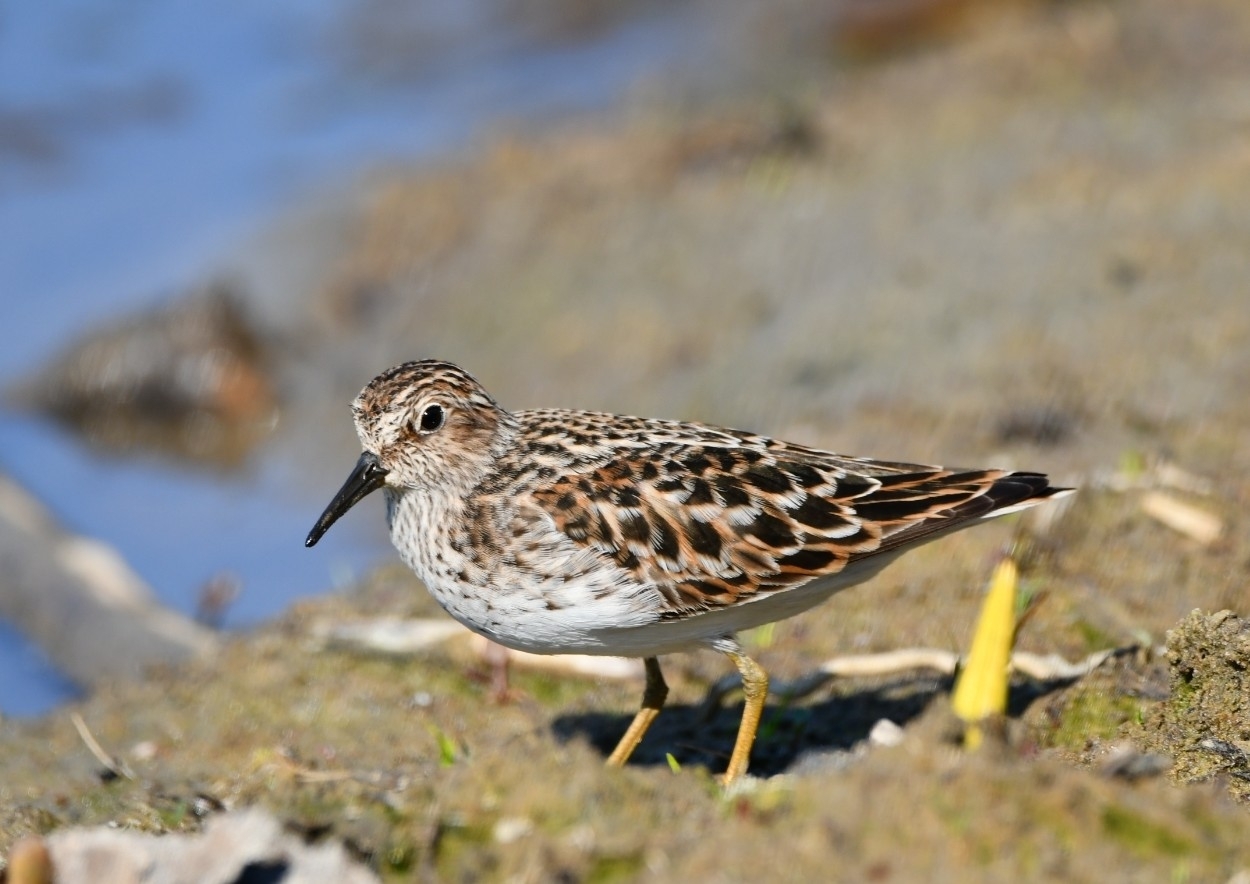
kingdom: Animalia
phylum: Chordata
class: Aves
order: Charadriiformes
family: Scolopacidae
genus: Calidris
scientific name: Calidris minutilla
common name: Least sandpiper
